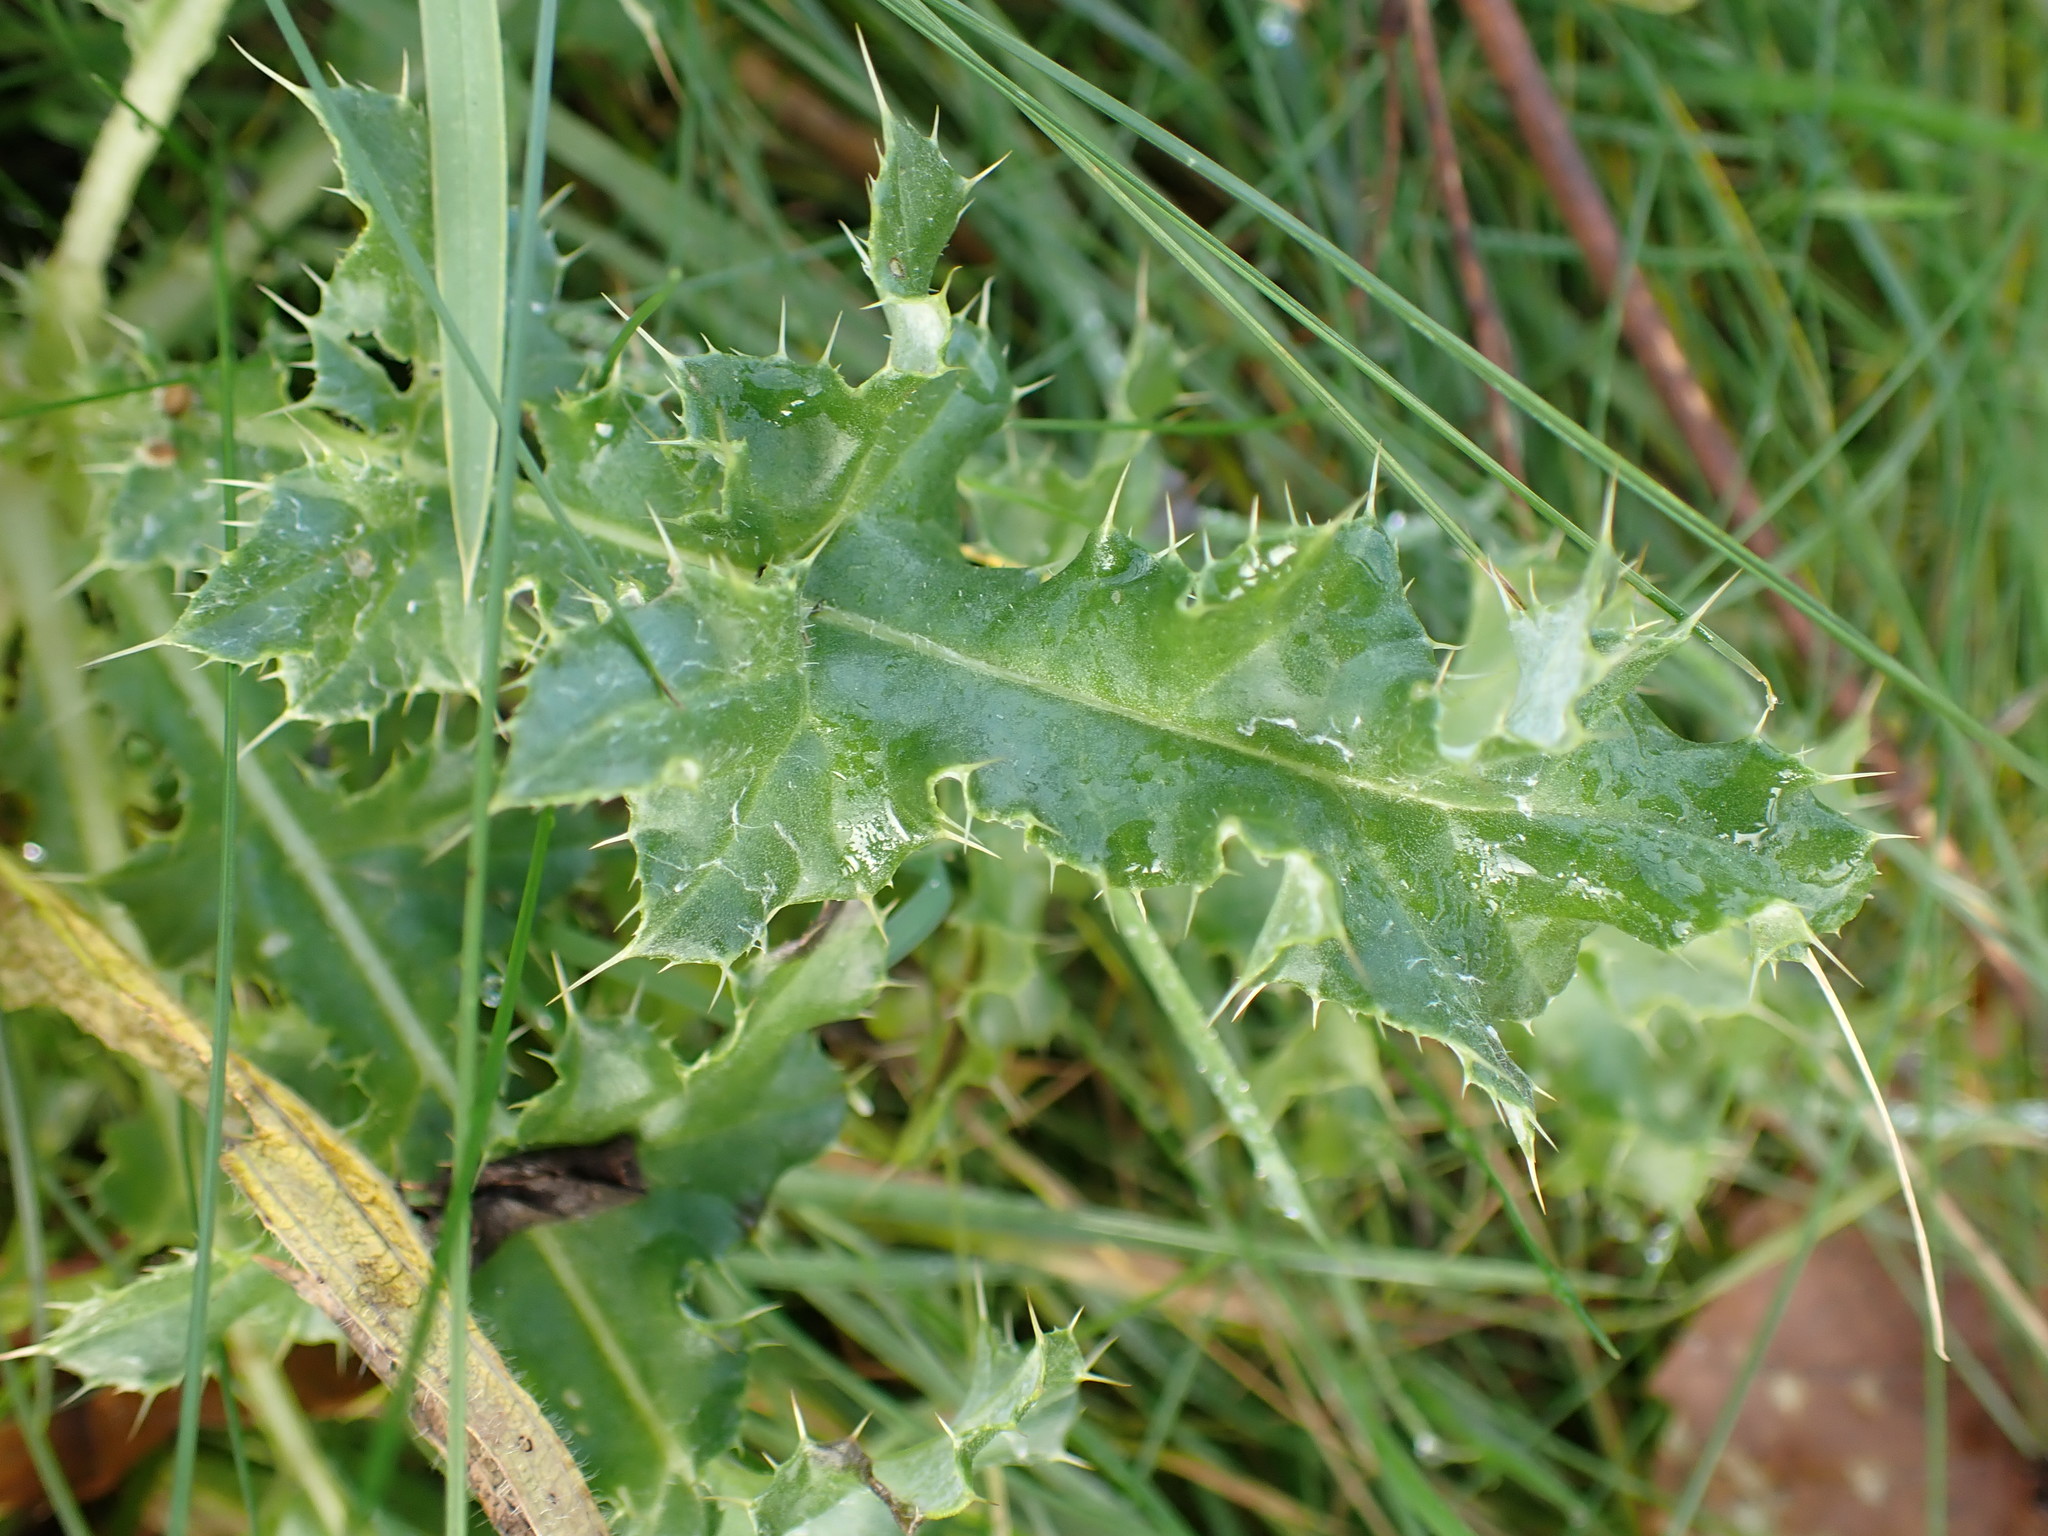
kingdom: Plantae
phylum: Tracheophyta
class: Magnoliopsida
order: Asterales
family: Asteraceae
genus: Cirsium
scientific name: Cirsium arvense
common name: Creeping thistle
